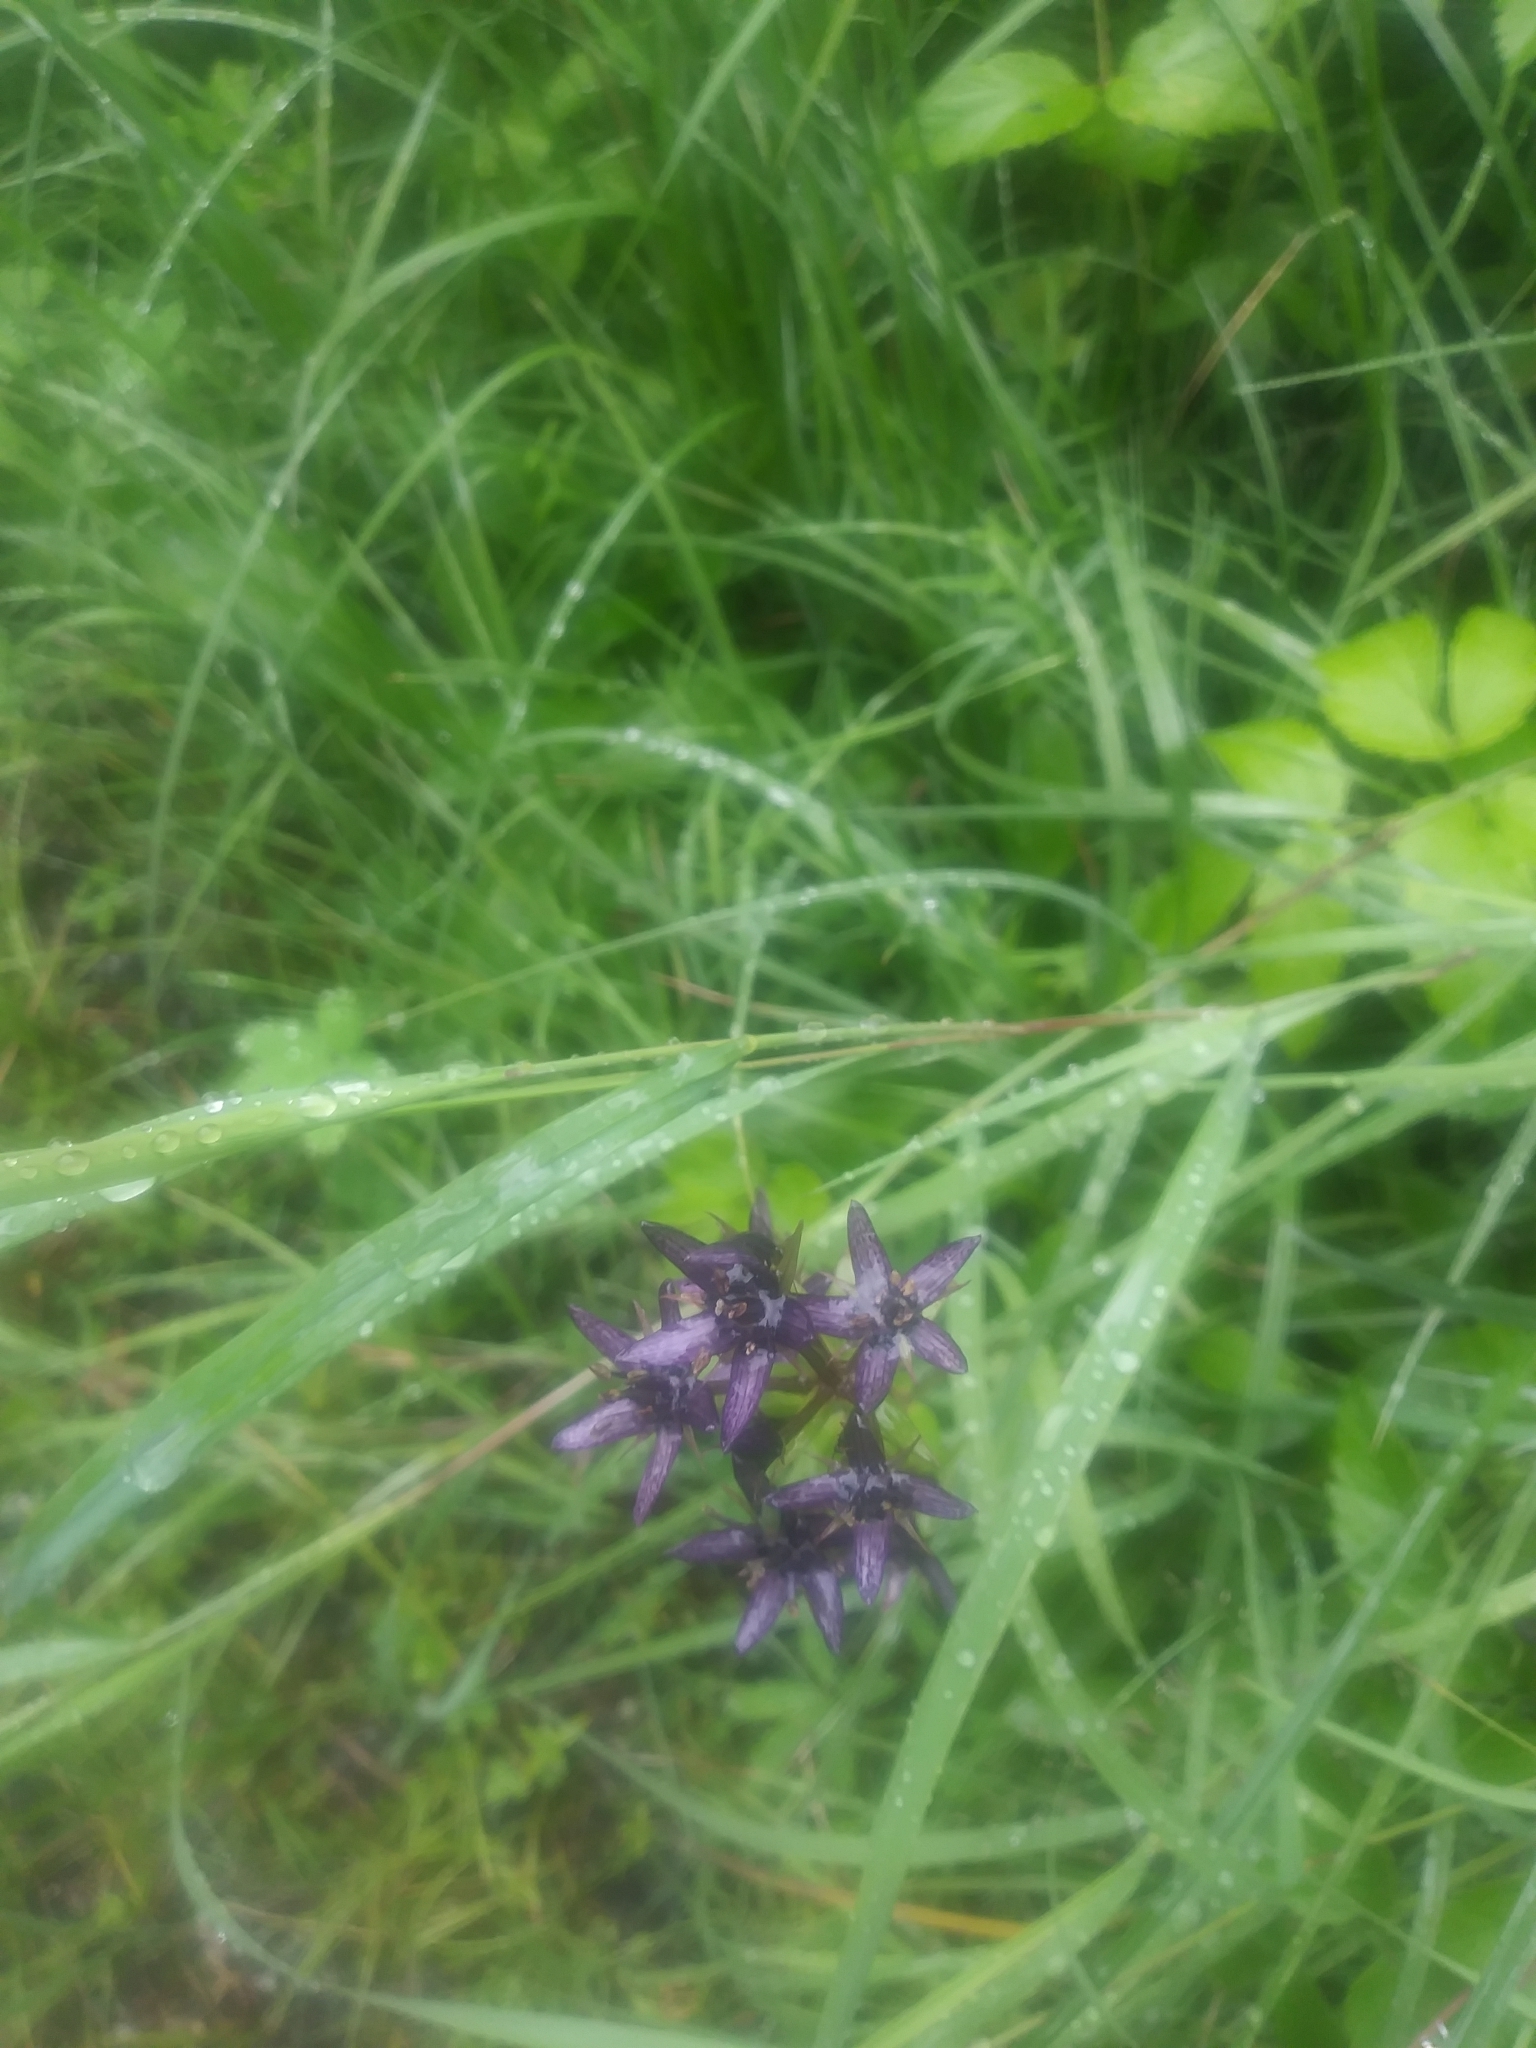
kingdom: Plantae
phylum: Tracheophyta
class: Magnoliopsida
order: Gentianales
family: Gentianaceae
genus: Swertia
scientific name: Swertia perennis
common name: Alpine bog swertia
